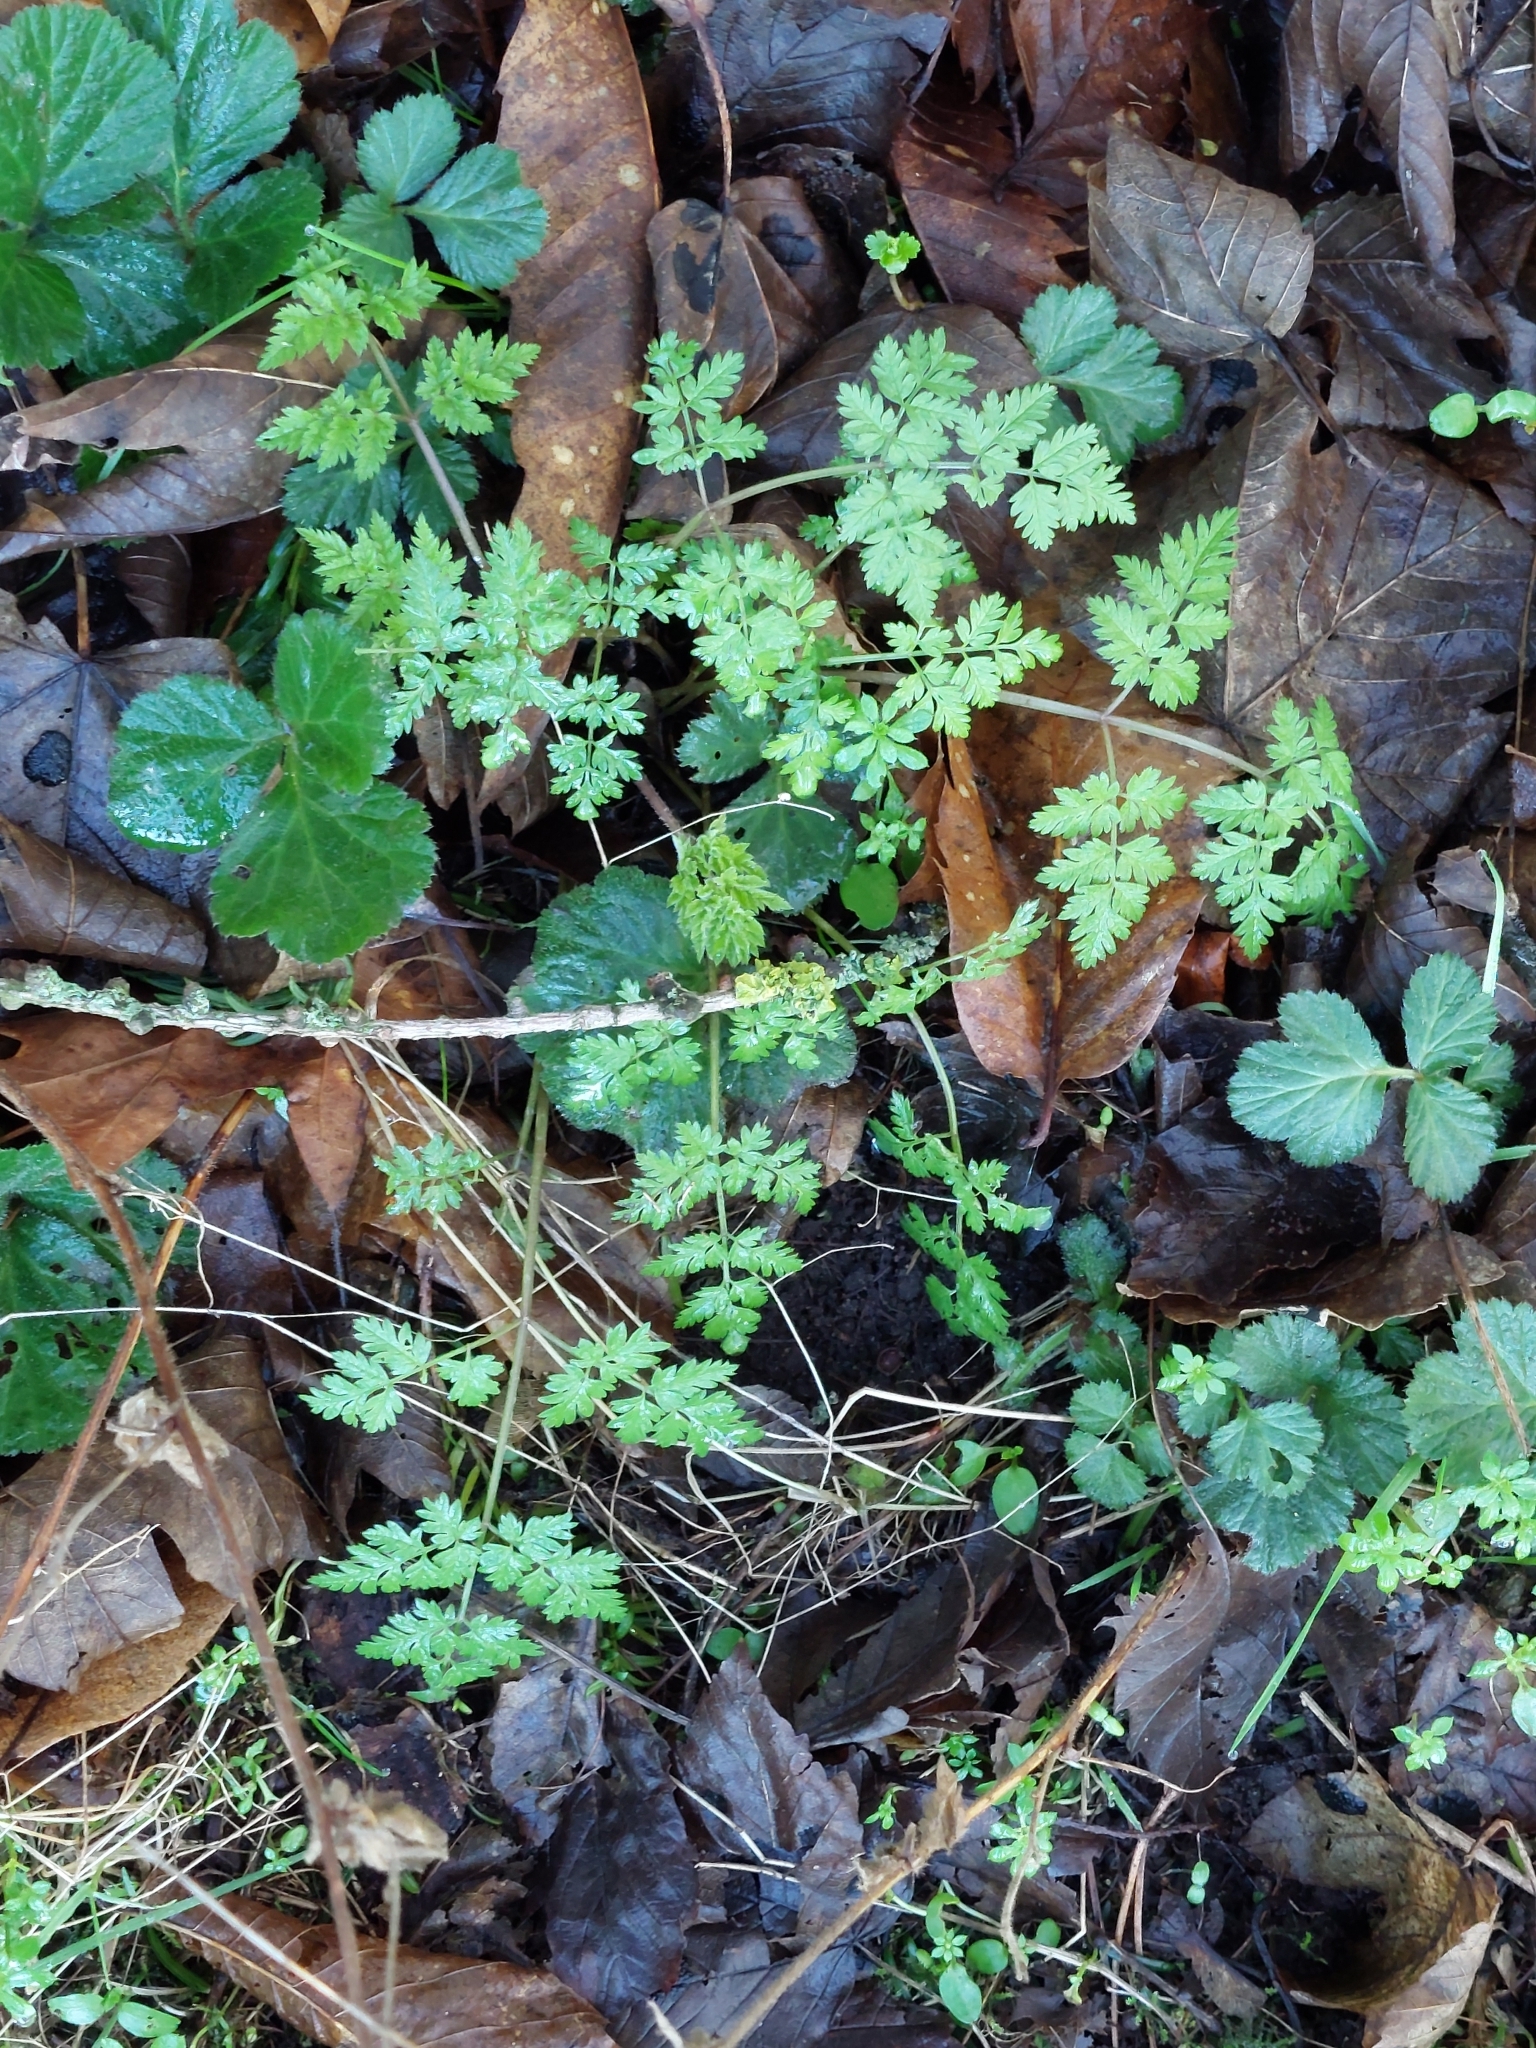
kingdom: Plantae
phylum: Tracheophyta
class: Magnoliopsida
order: Apiales
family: Apiaceae
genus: Anthriscus
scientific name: Anthriscus sylvestris
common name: Cow parsley
